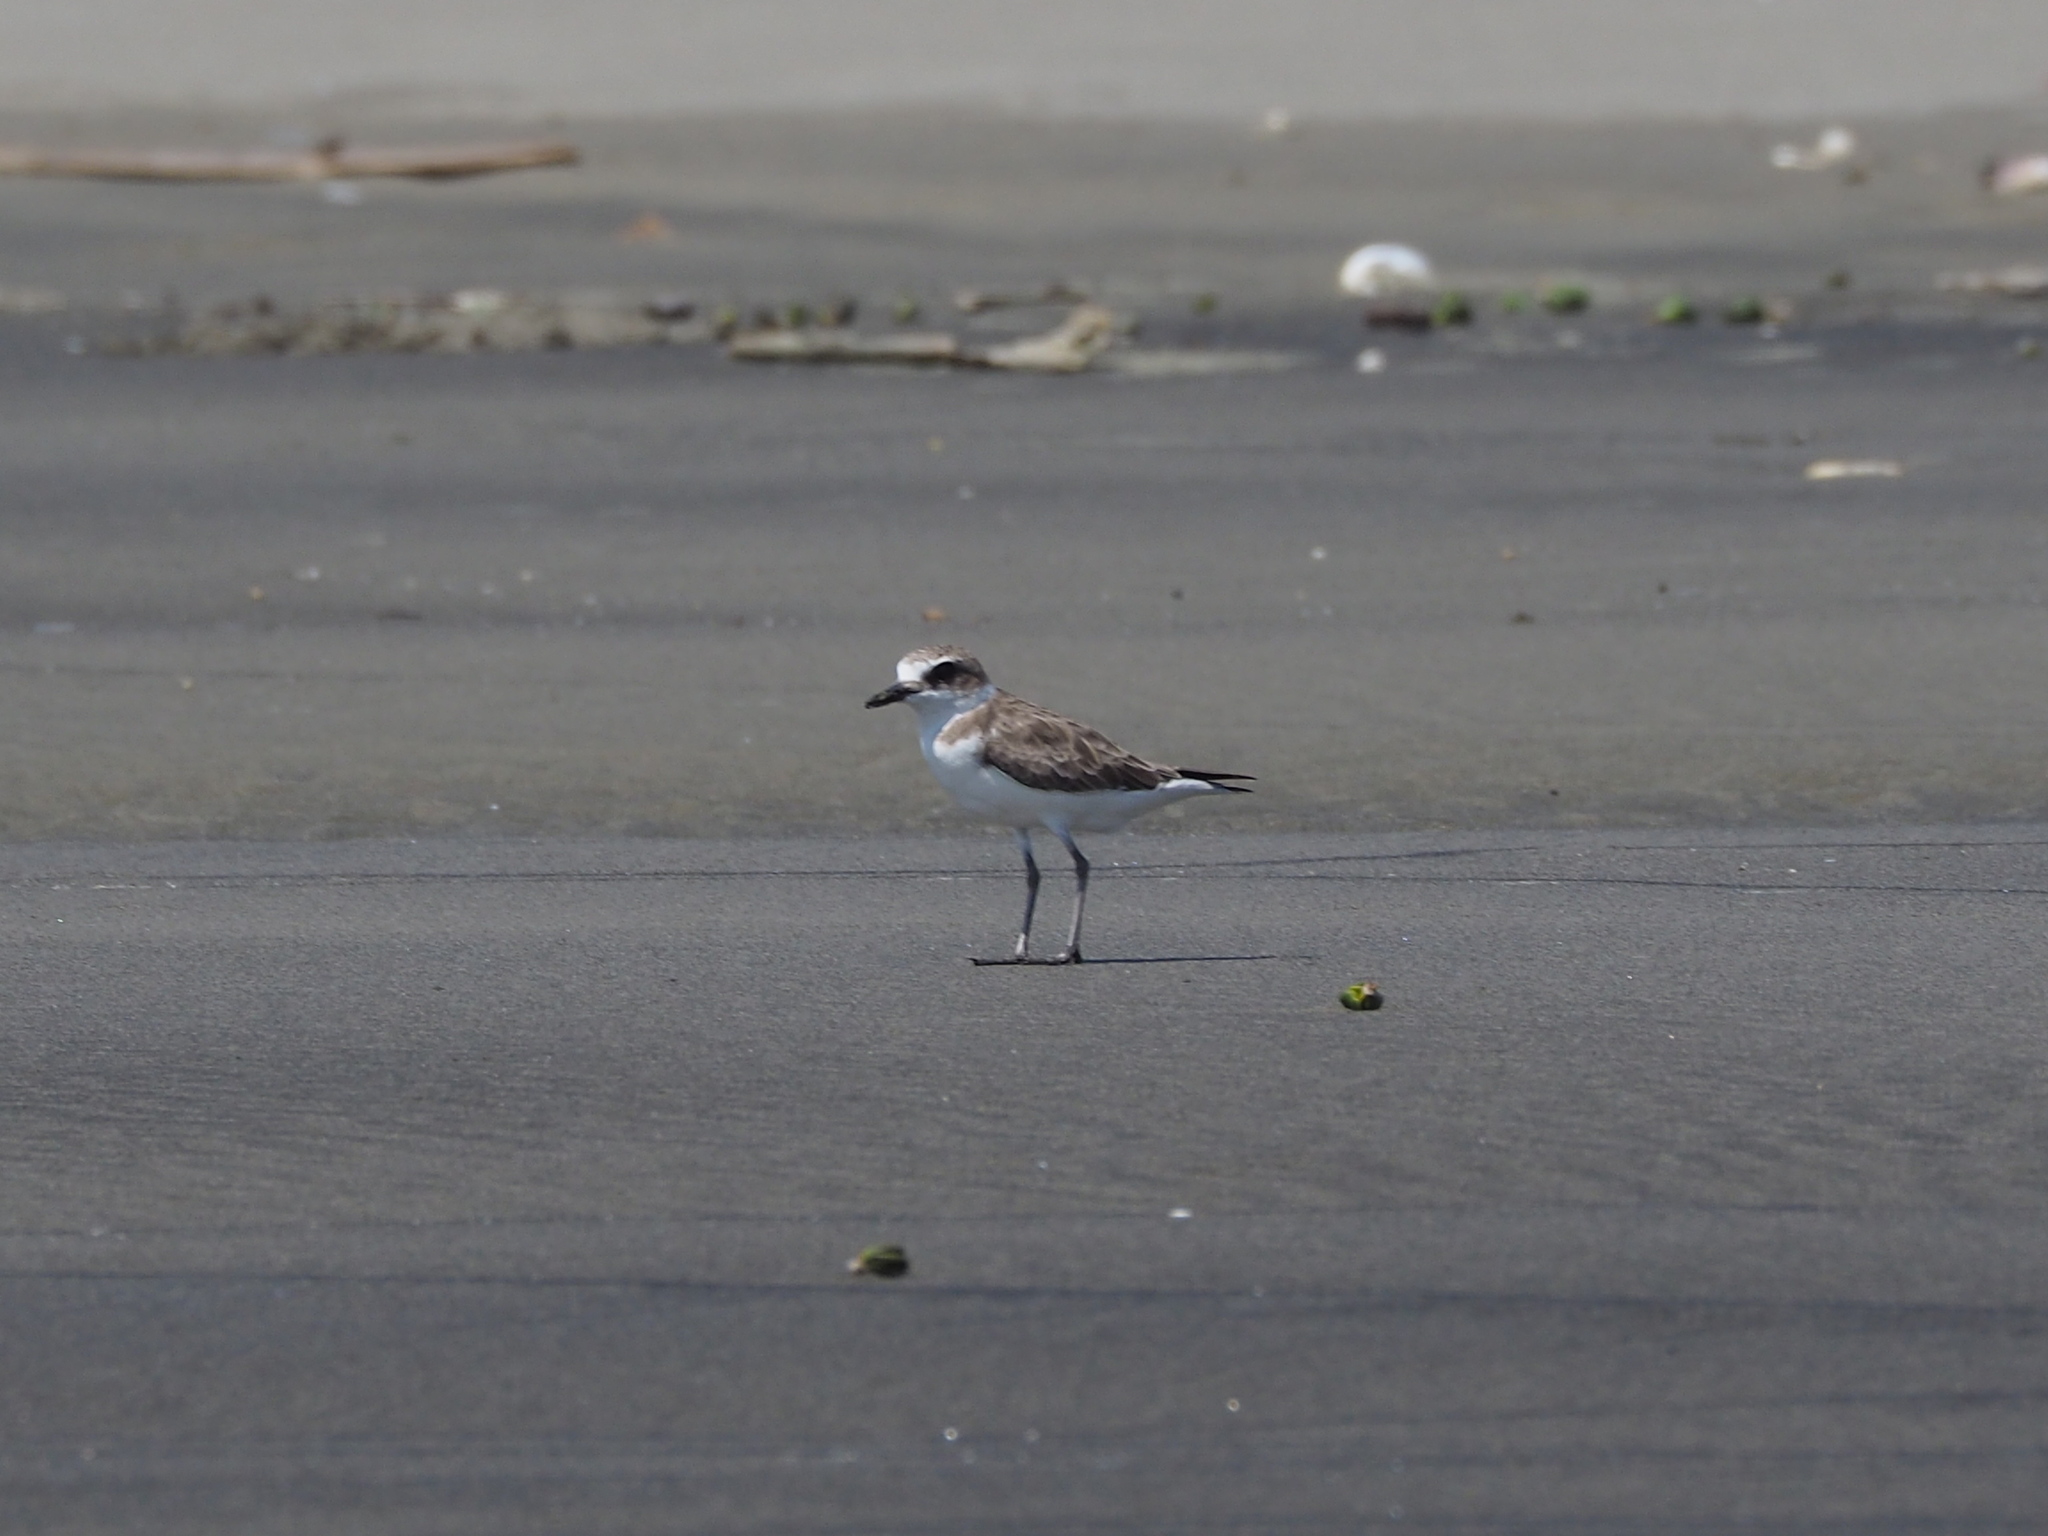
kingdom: Animalia
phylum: Chordata
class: Aves
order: Charadriiformes
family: Charadriidae
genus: Charadrius
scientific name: Charadrius alexandrinus
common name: Kentish plover
